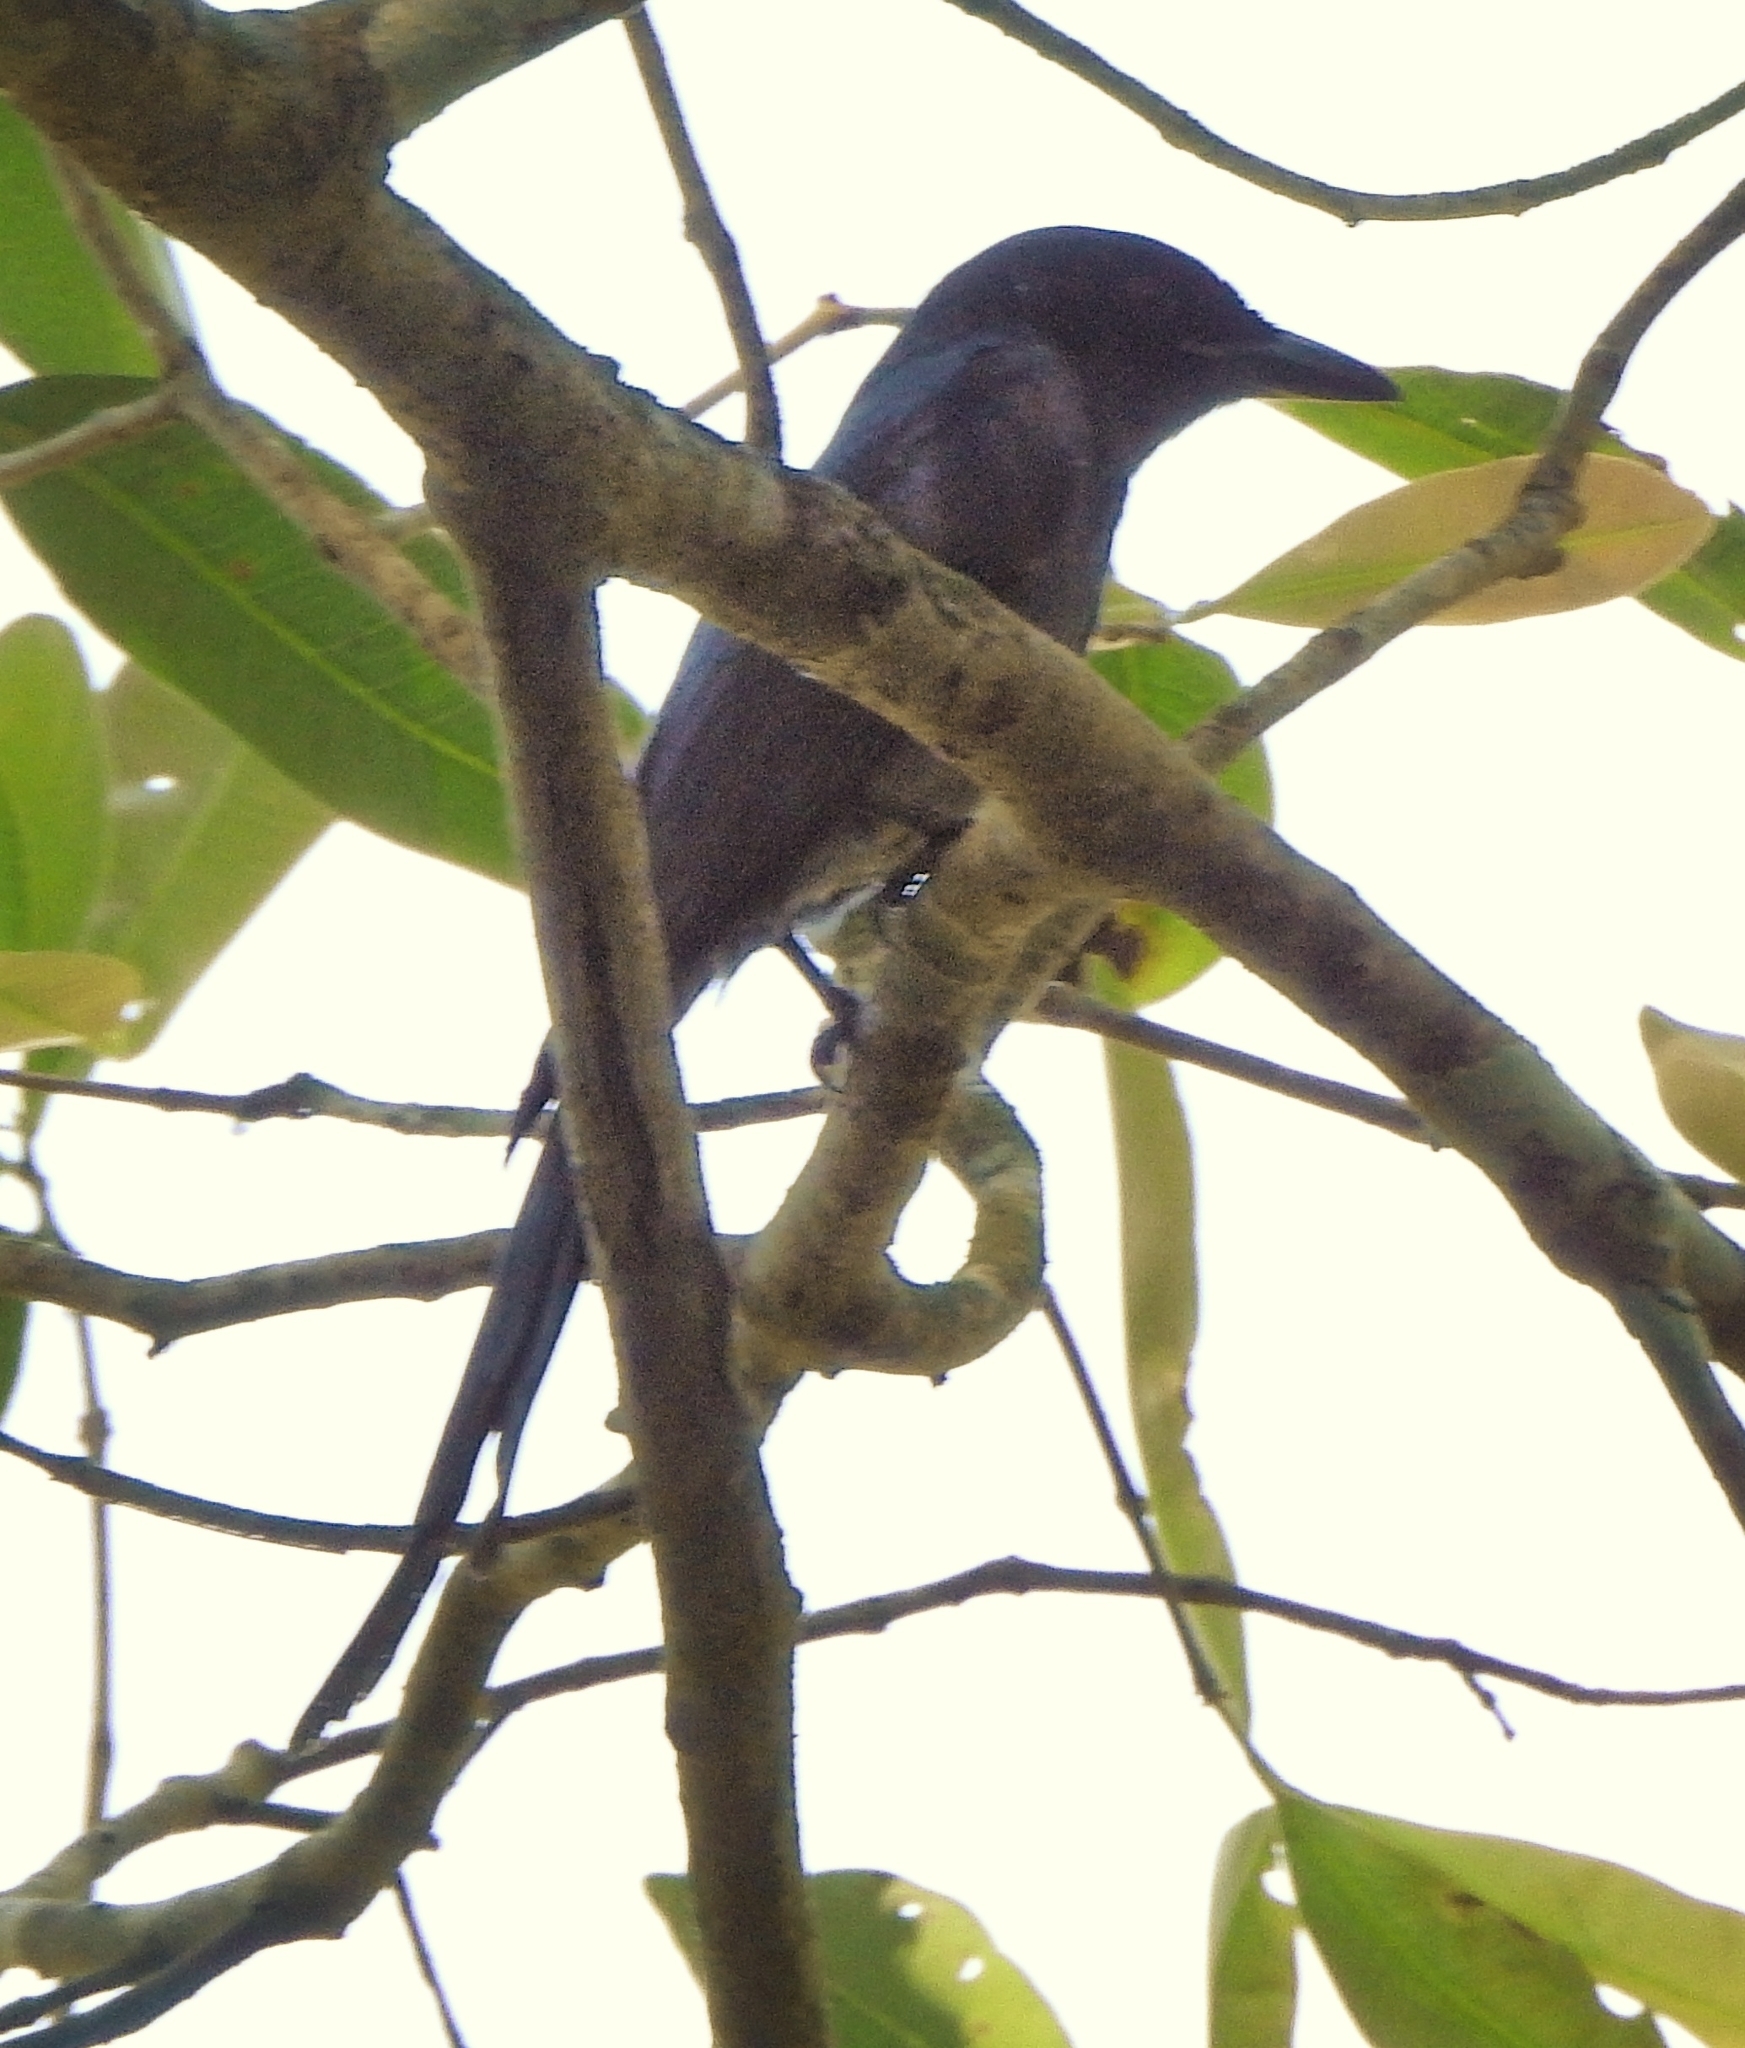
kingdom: Animalia
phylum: Chordata
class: Aves
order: Passeriformes
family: Dicruridae
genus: Dicrurus
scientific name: Dicrurus leucophaeus
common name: Ashy drongo
